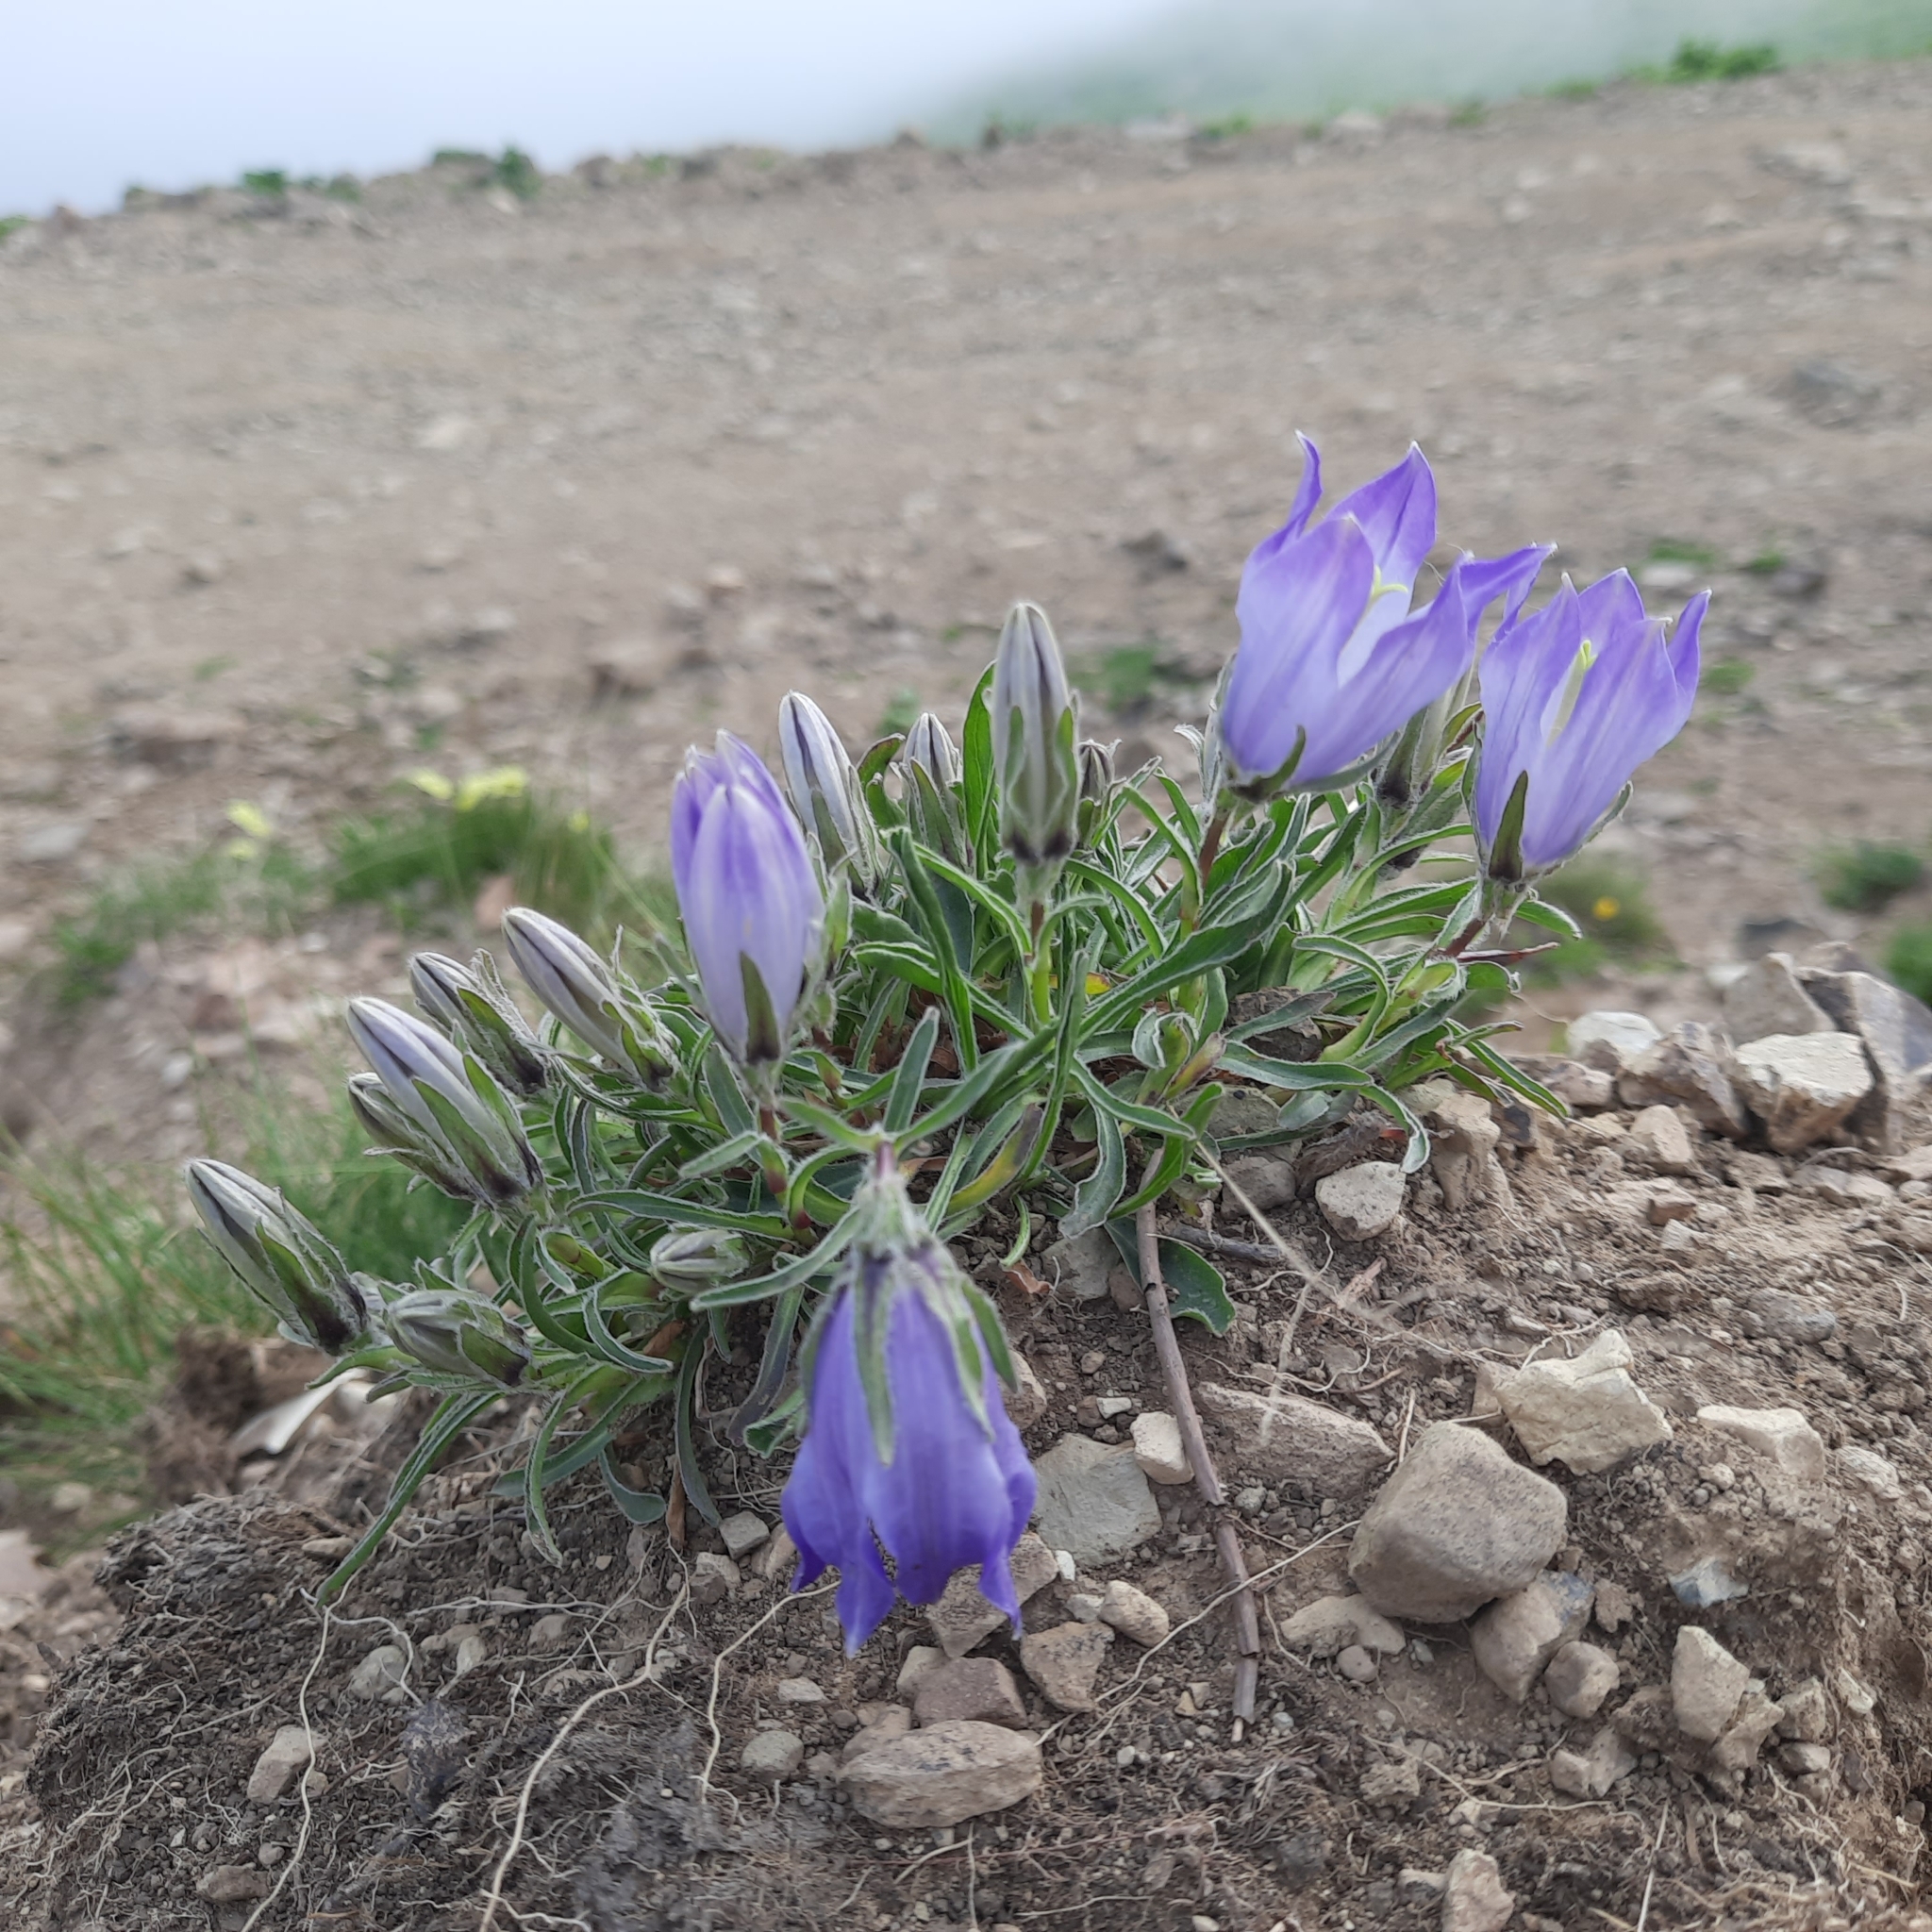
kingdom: Plantae
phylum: Tracheophyta
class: Magnoliopsida
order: Asterales
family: Campanulaceae
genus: Campanula
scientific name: Campanula tridentata
